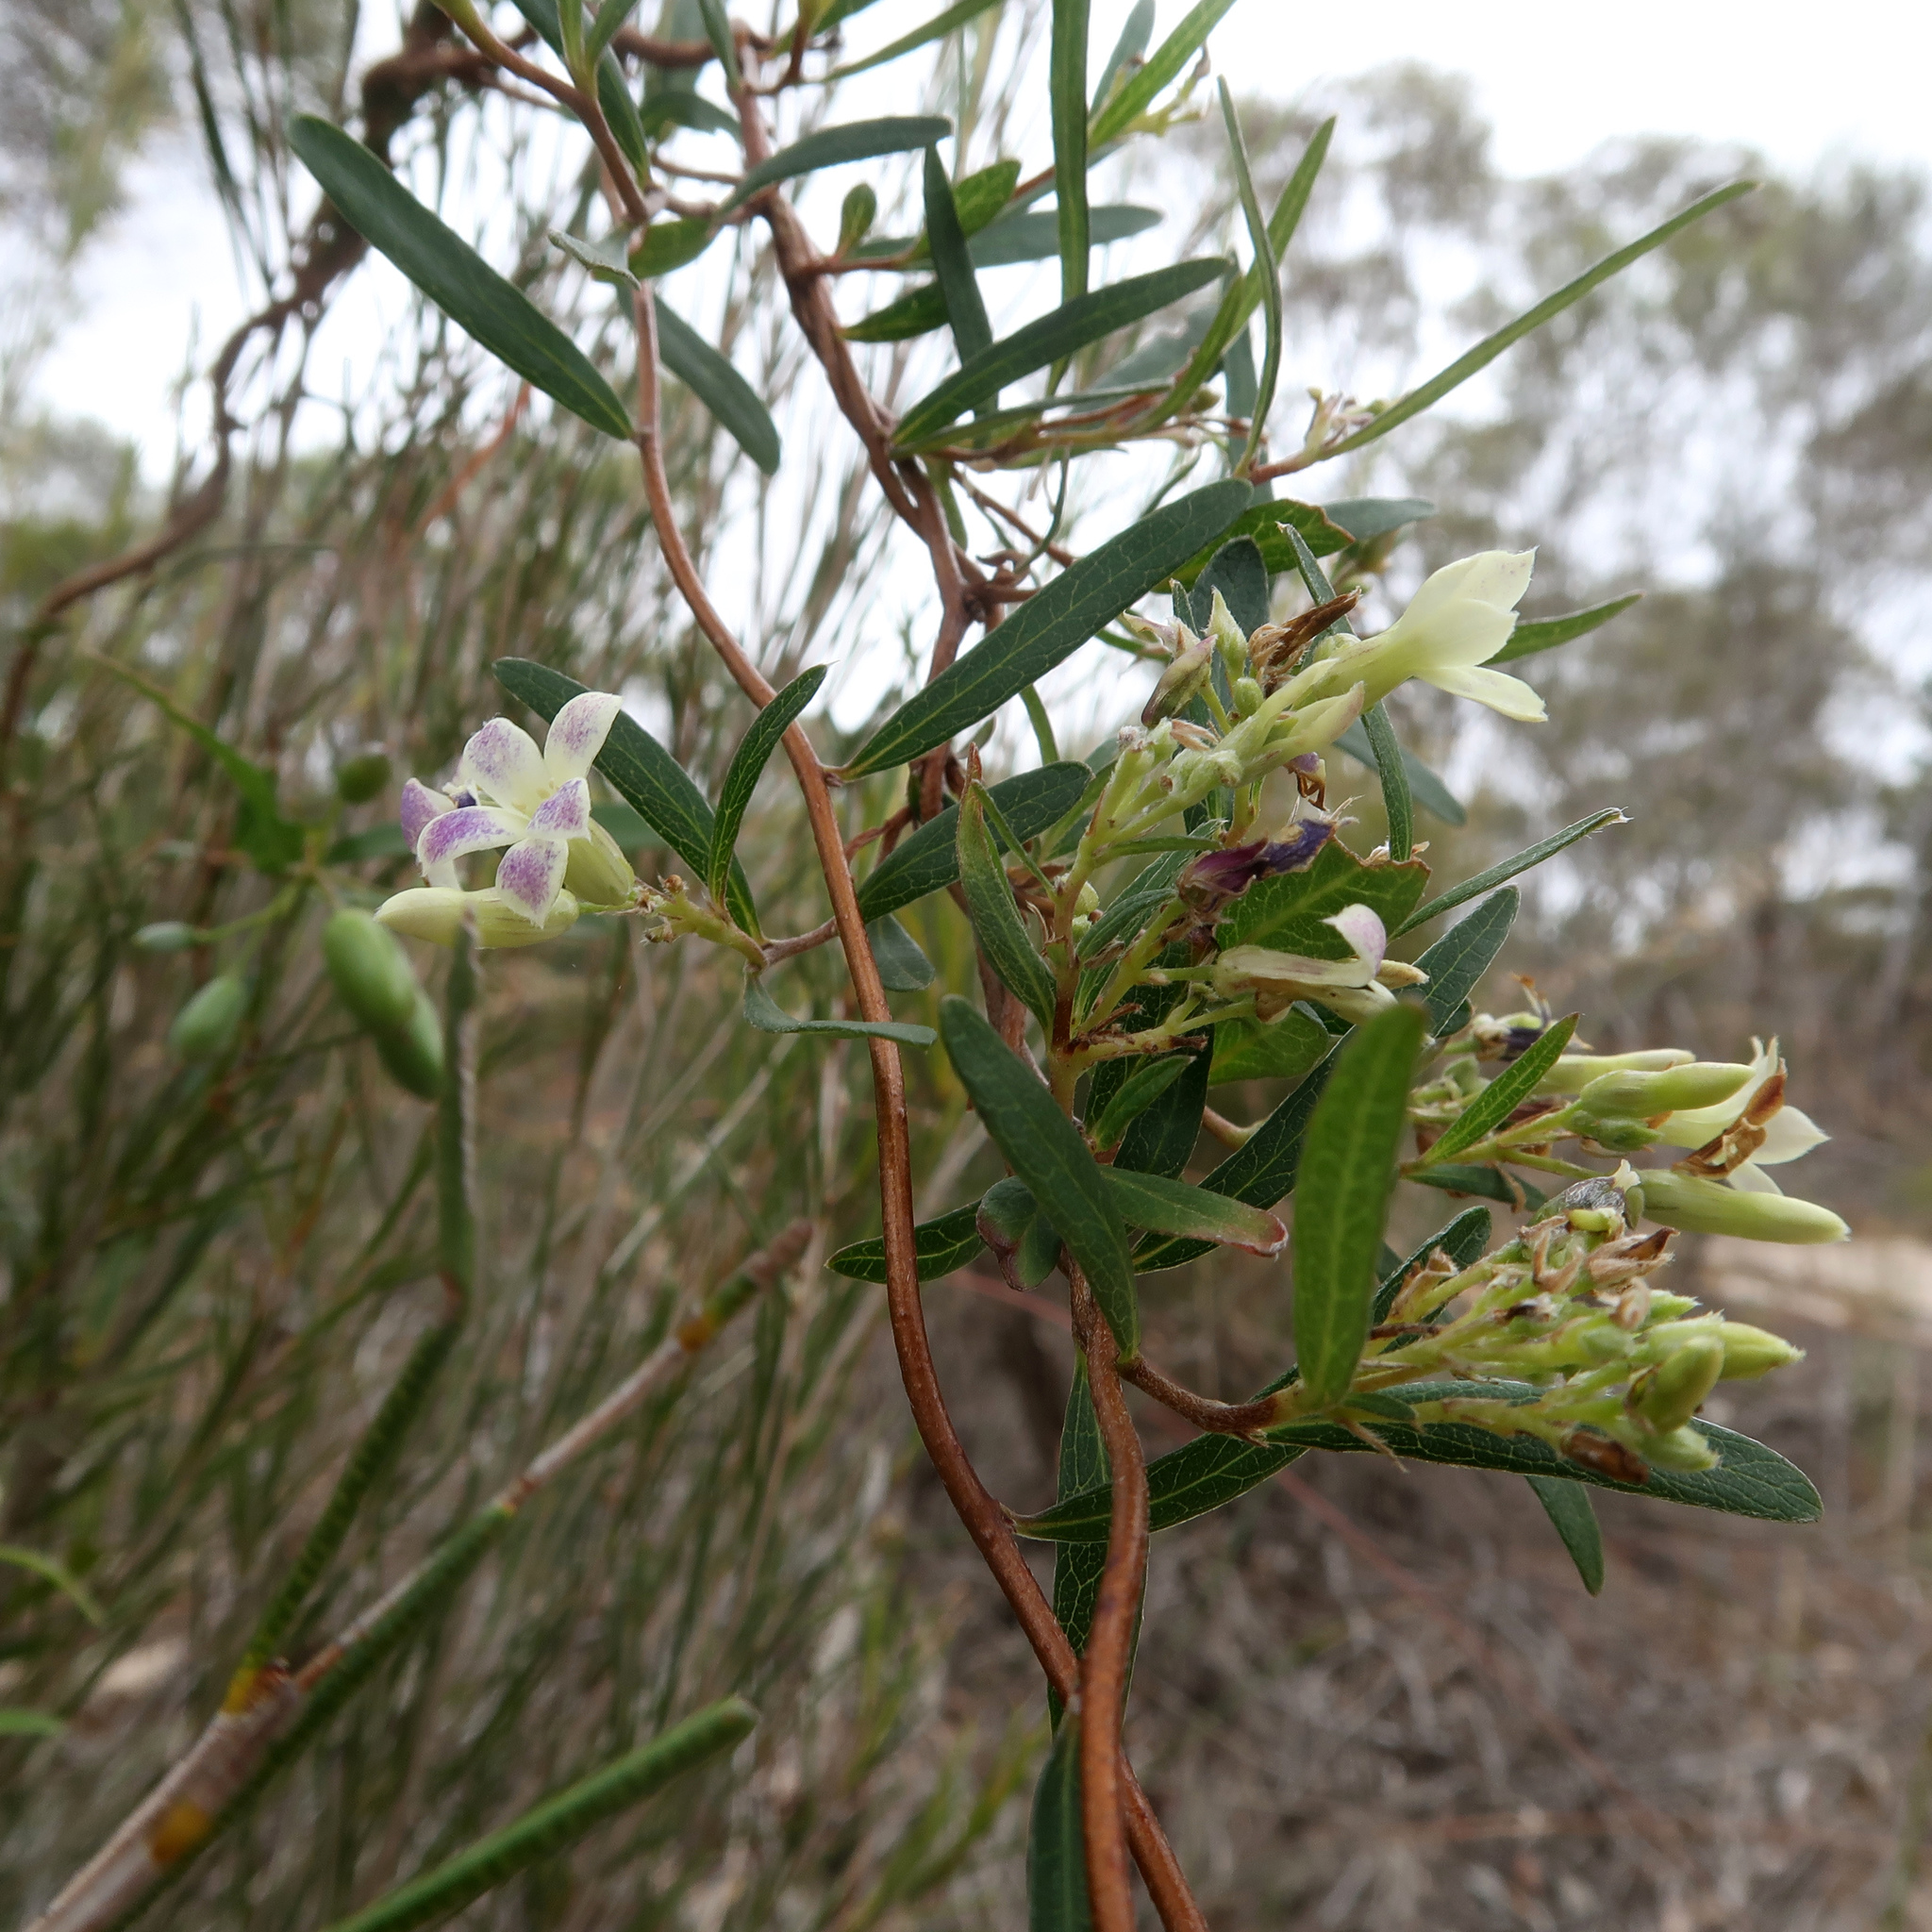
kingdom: Plantae
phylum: Tracheophyta
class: Magnoliopsida
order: Apiales
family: Pittosporaceae
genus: Billardiera
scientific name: Billardiera cymosa
